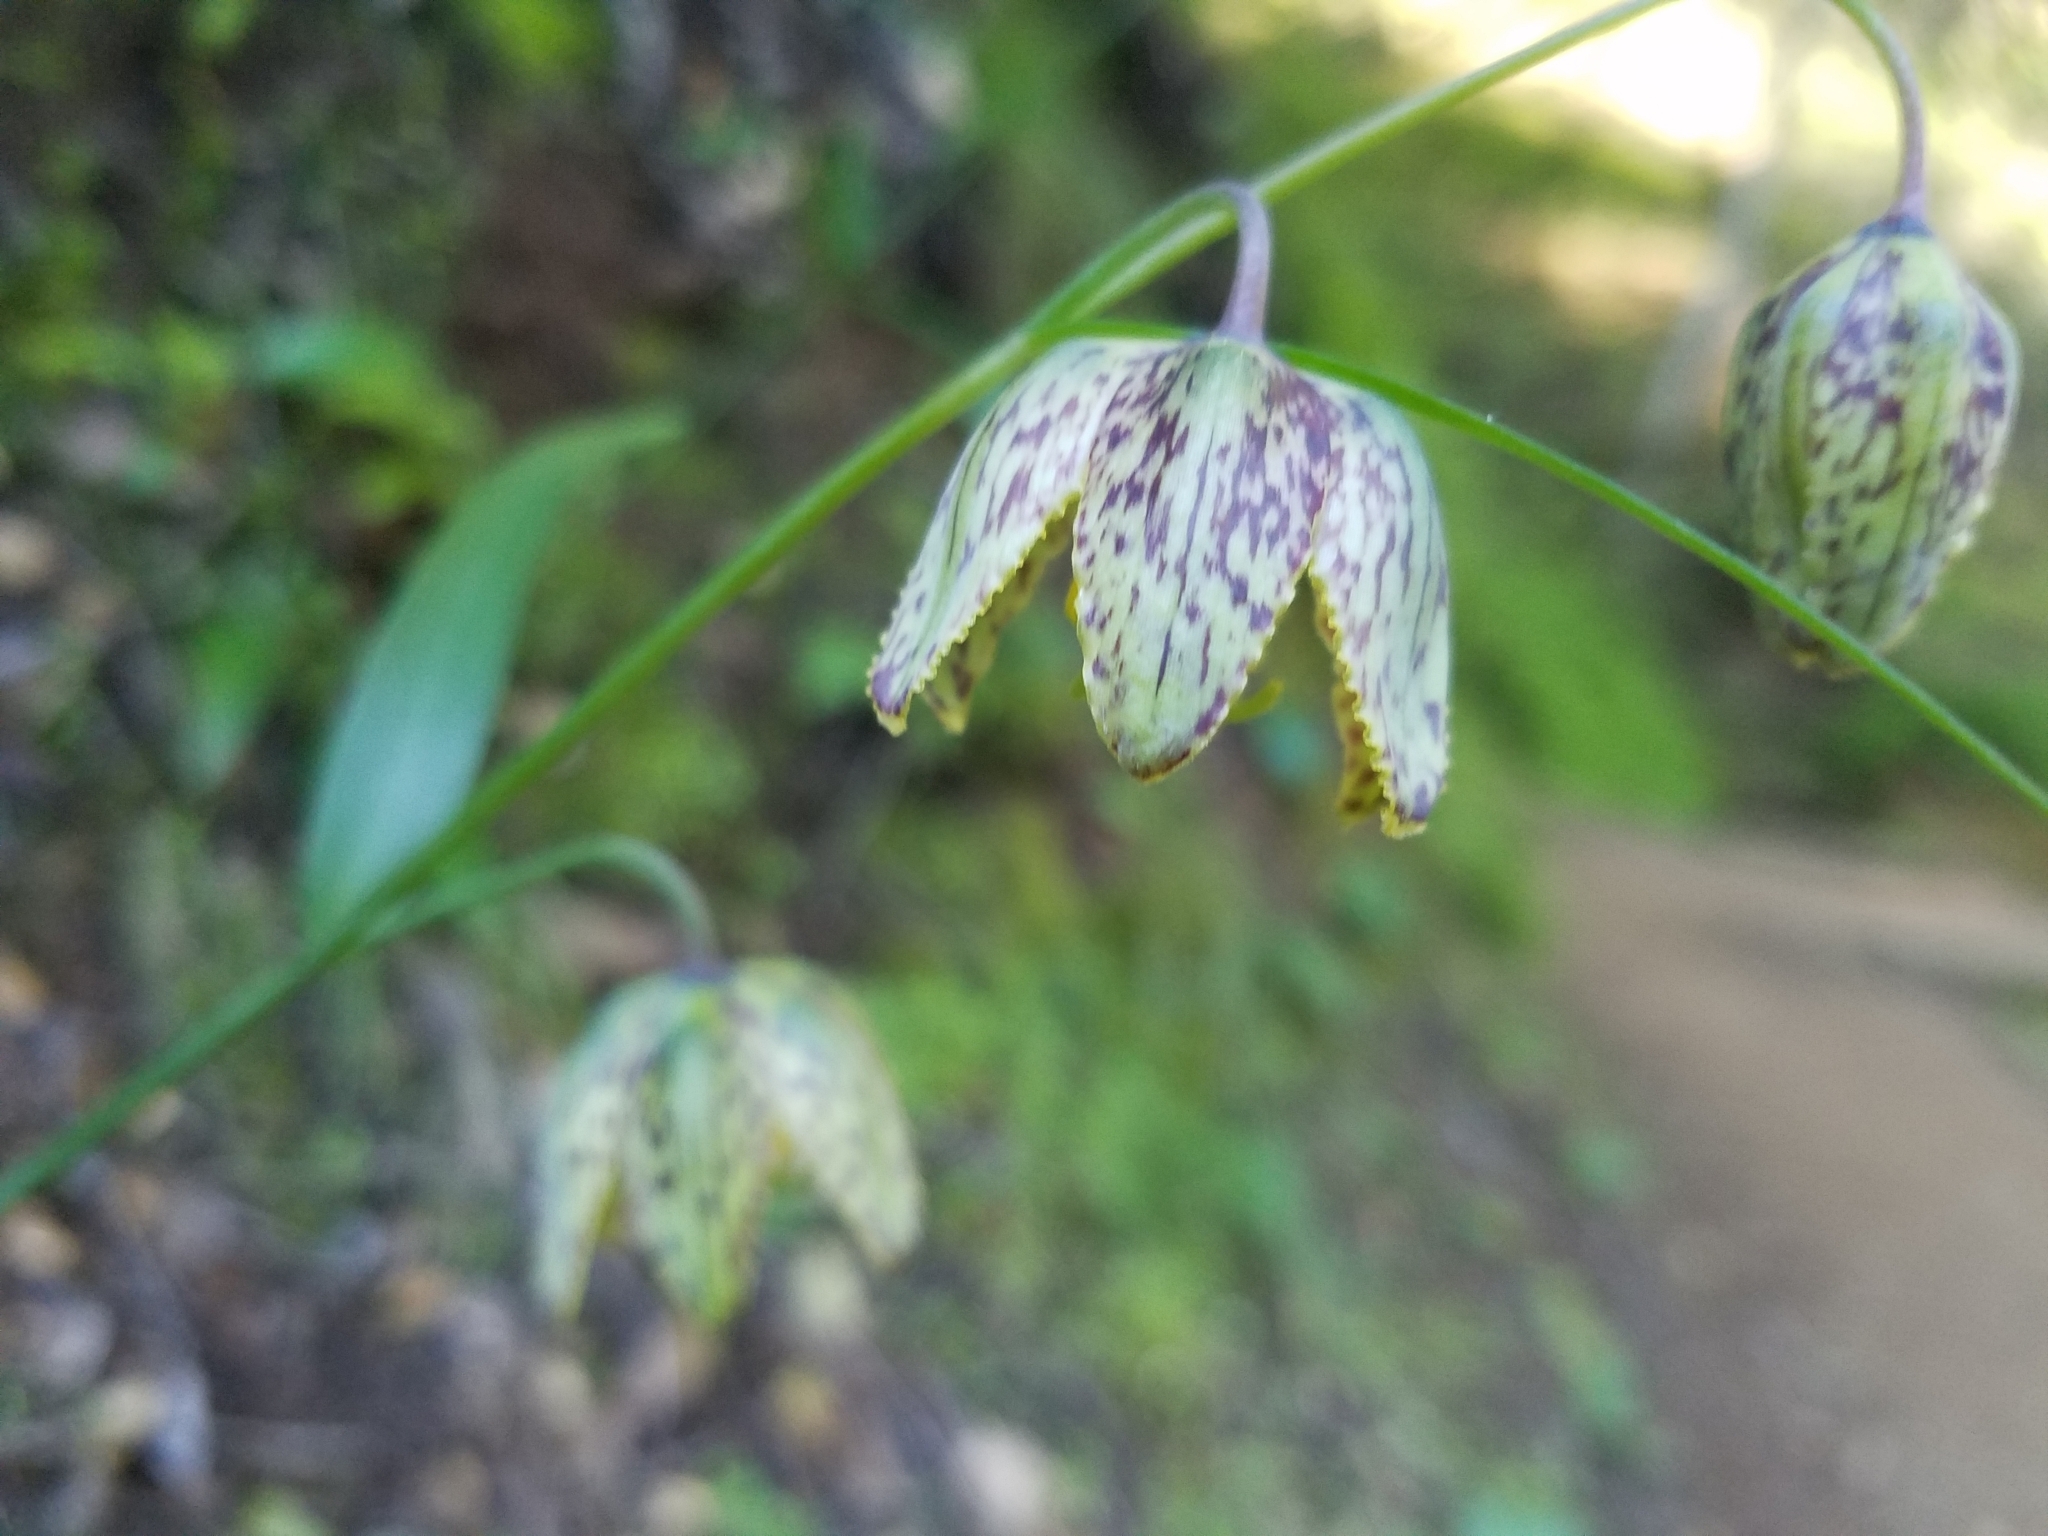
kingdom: Plantae
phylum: Tracheophyta
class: Liliopsida
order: Liliales
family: Liliaceae
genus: Fritillaria
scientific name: Fritillaria affinis
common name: Ojai fritillary
